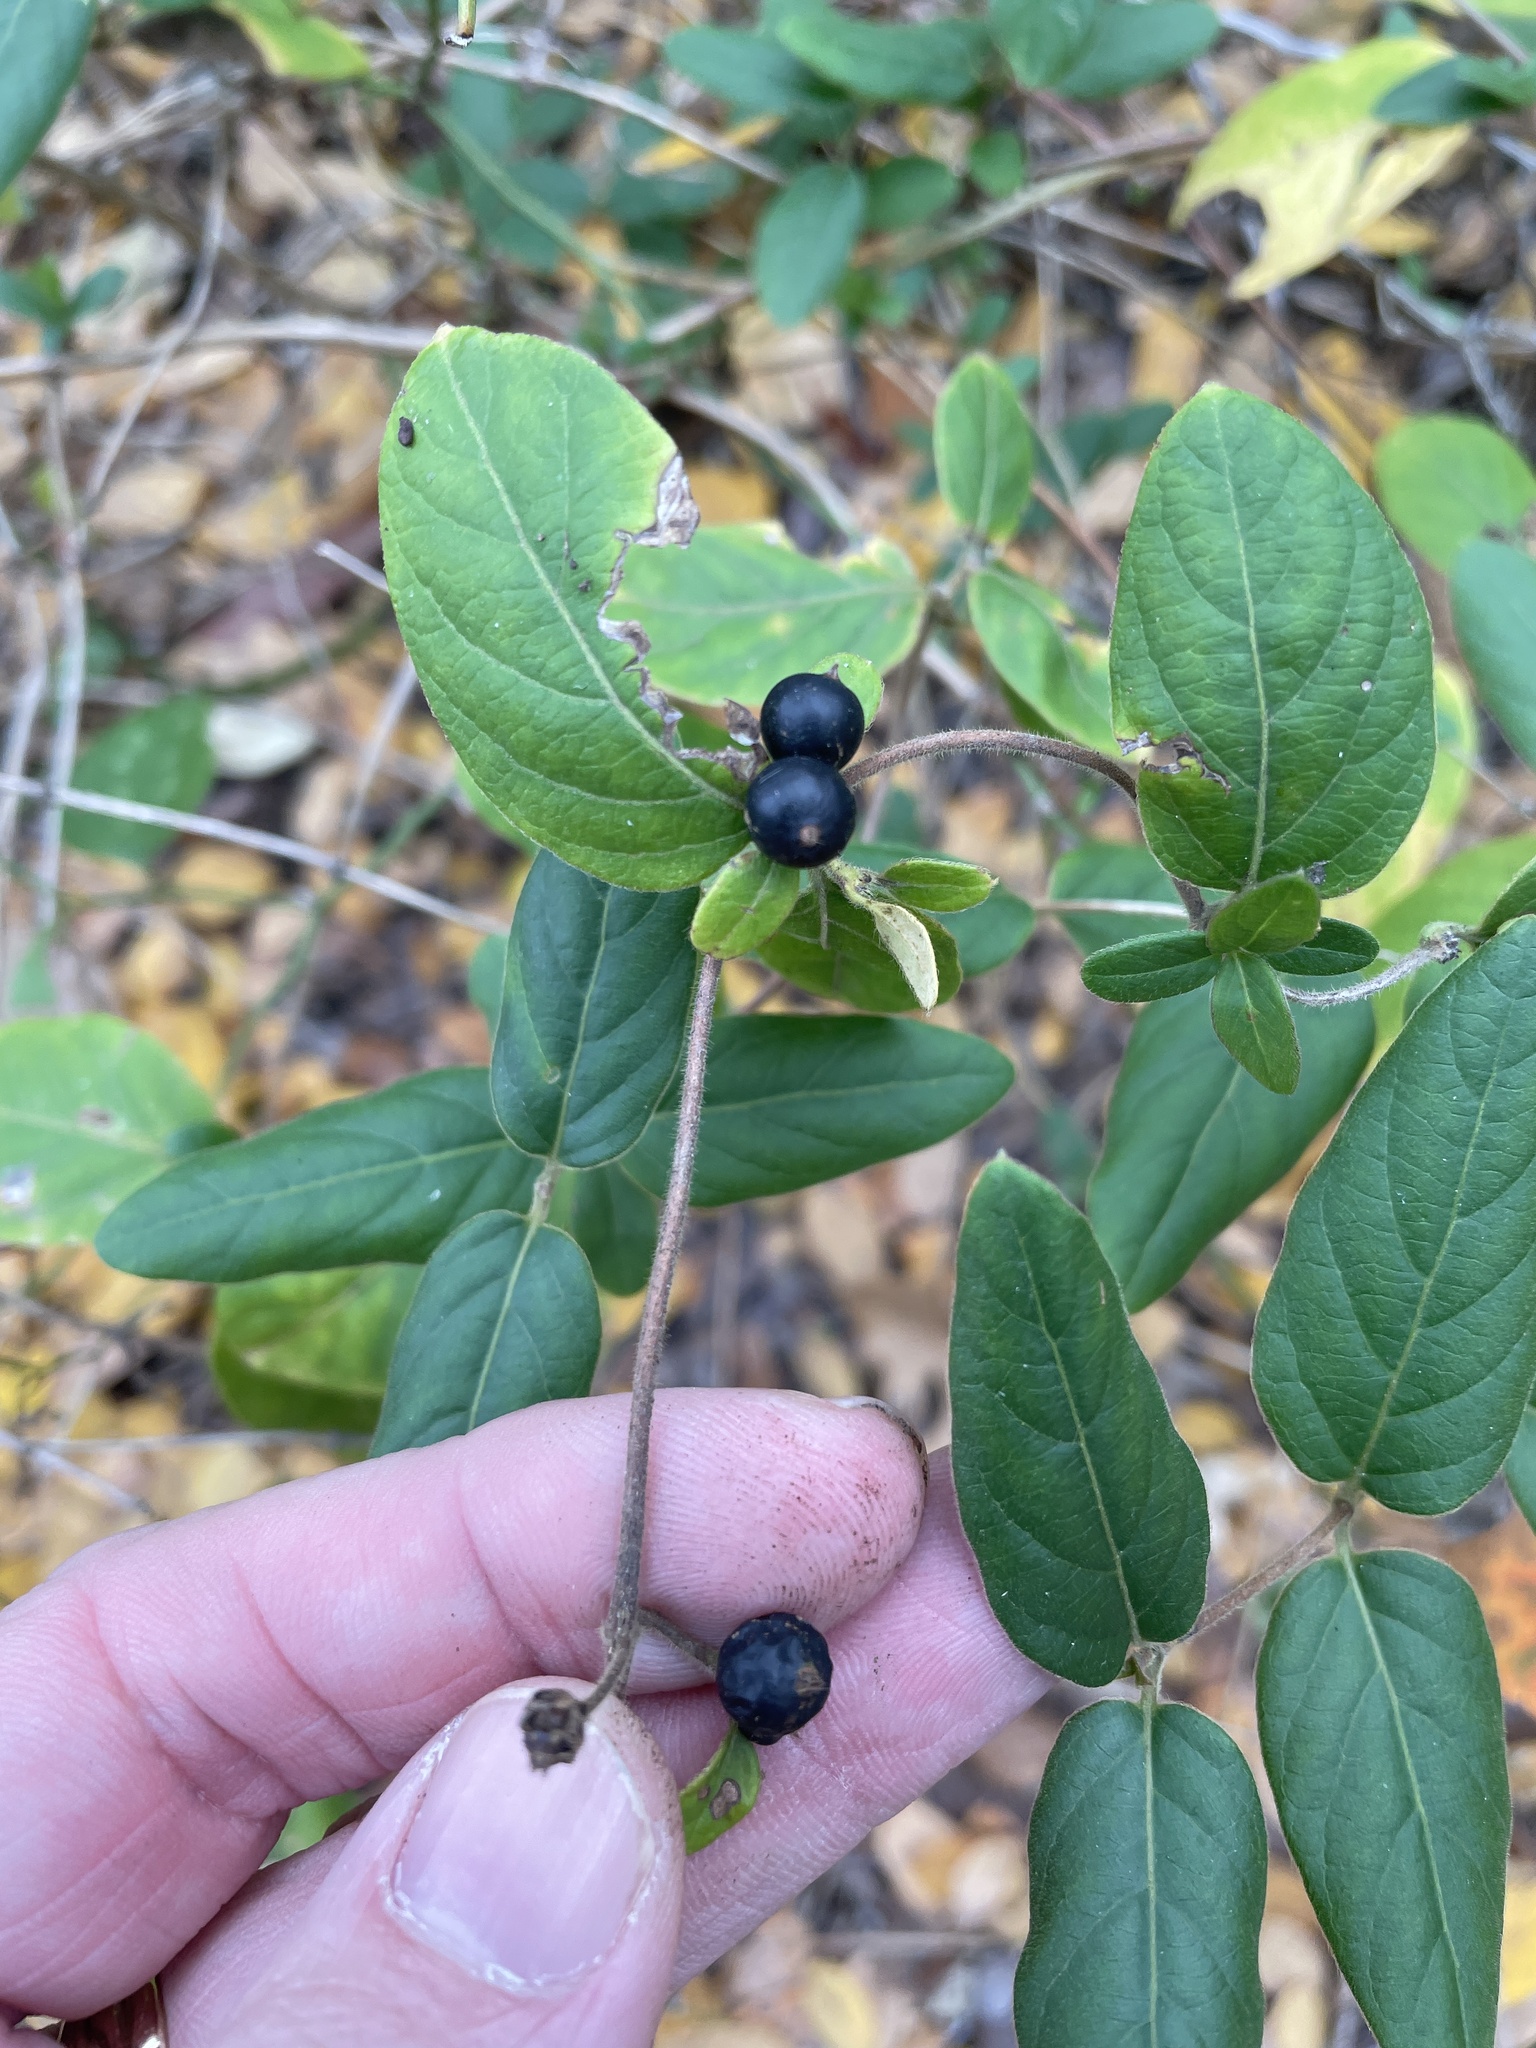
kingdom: Plantae
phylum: Tracheophyta
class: Magnoliopsida
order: Dipsacales
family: Caprifoliaceae
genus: Lonicera
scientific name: Lonicera japonica
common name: Japanese honeysuckle
